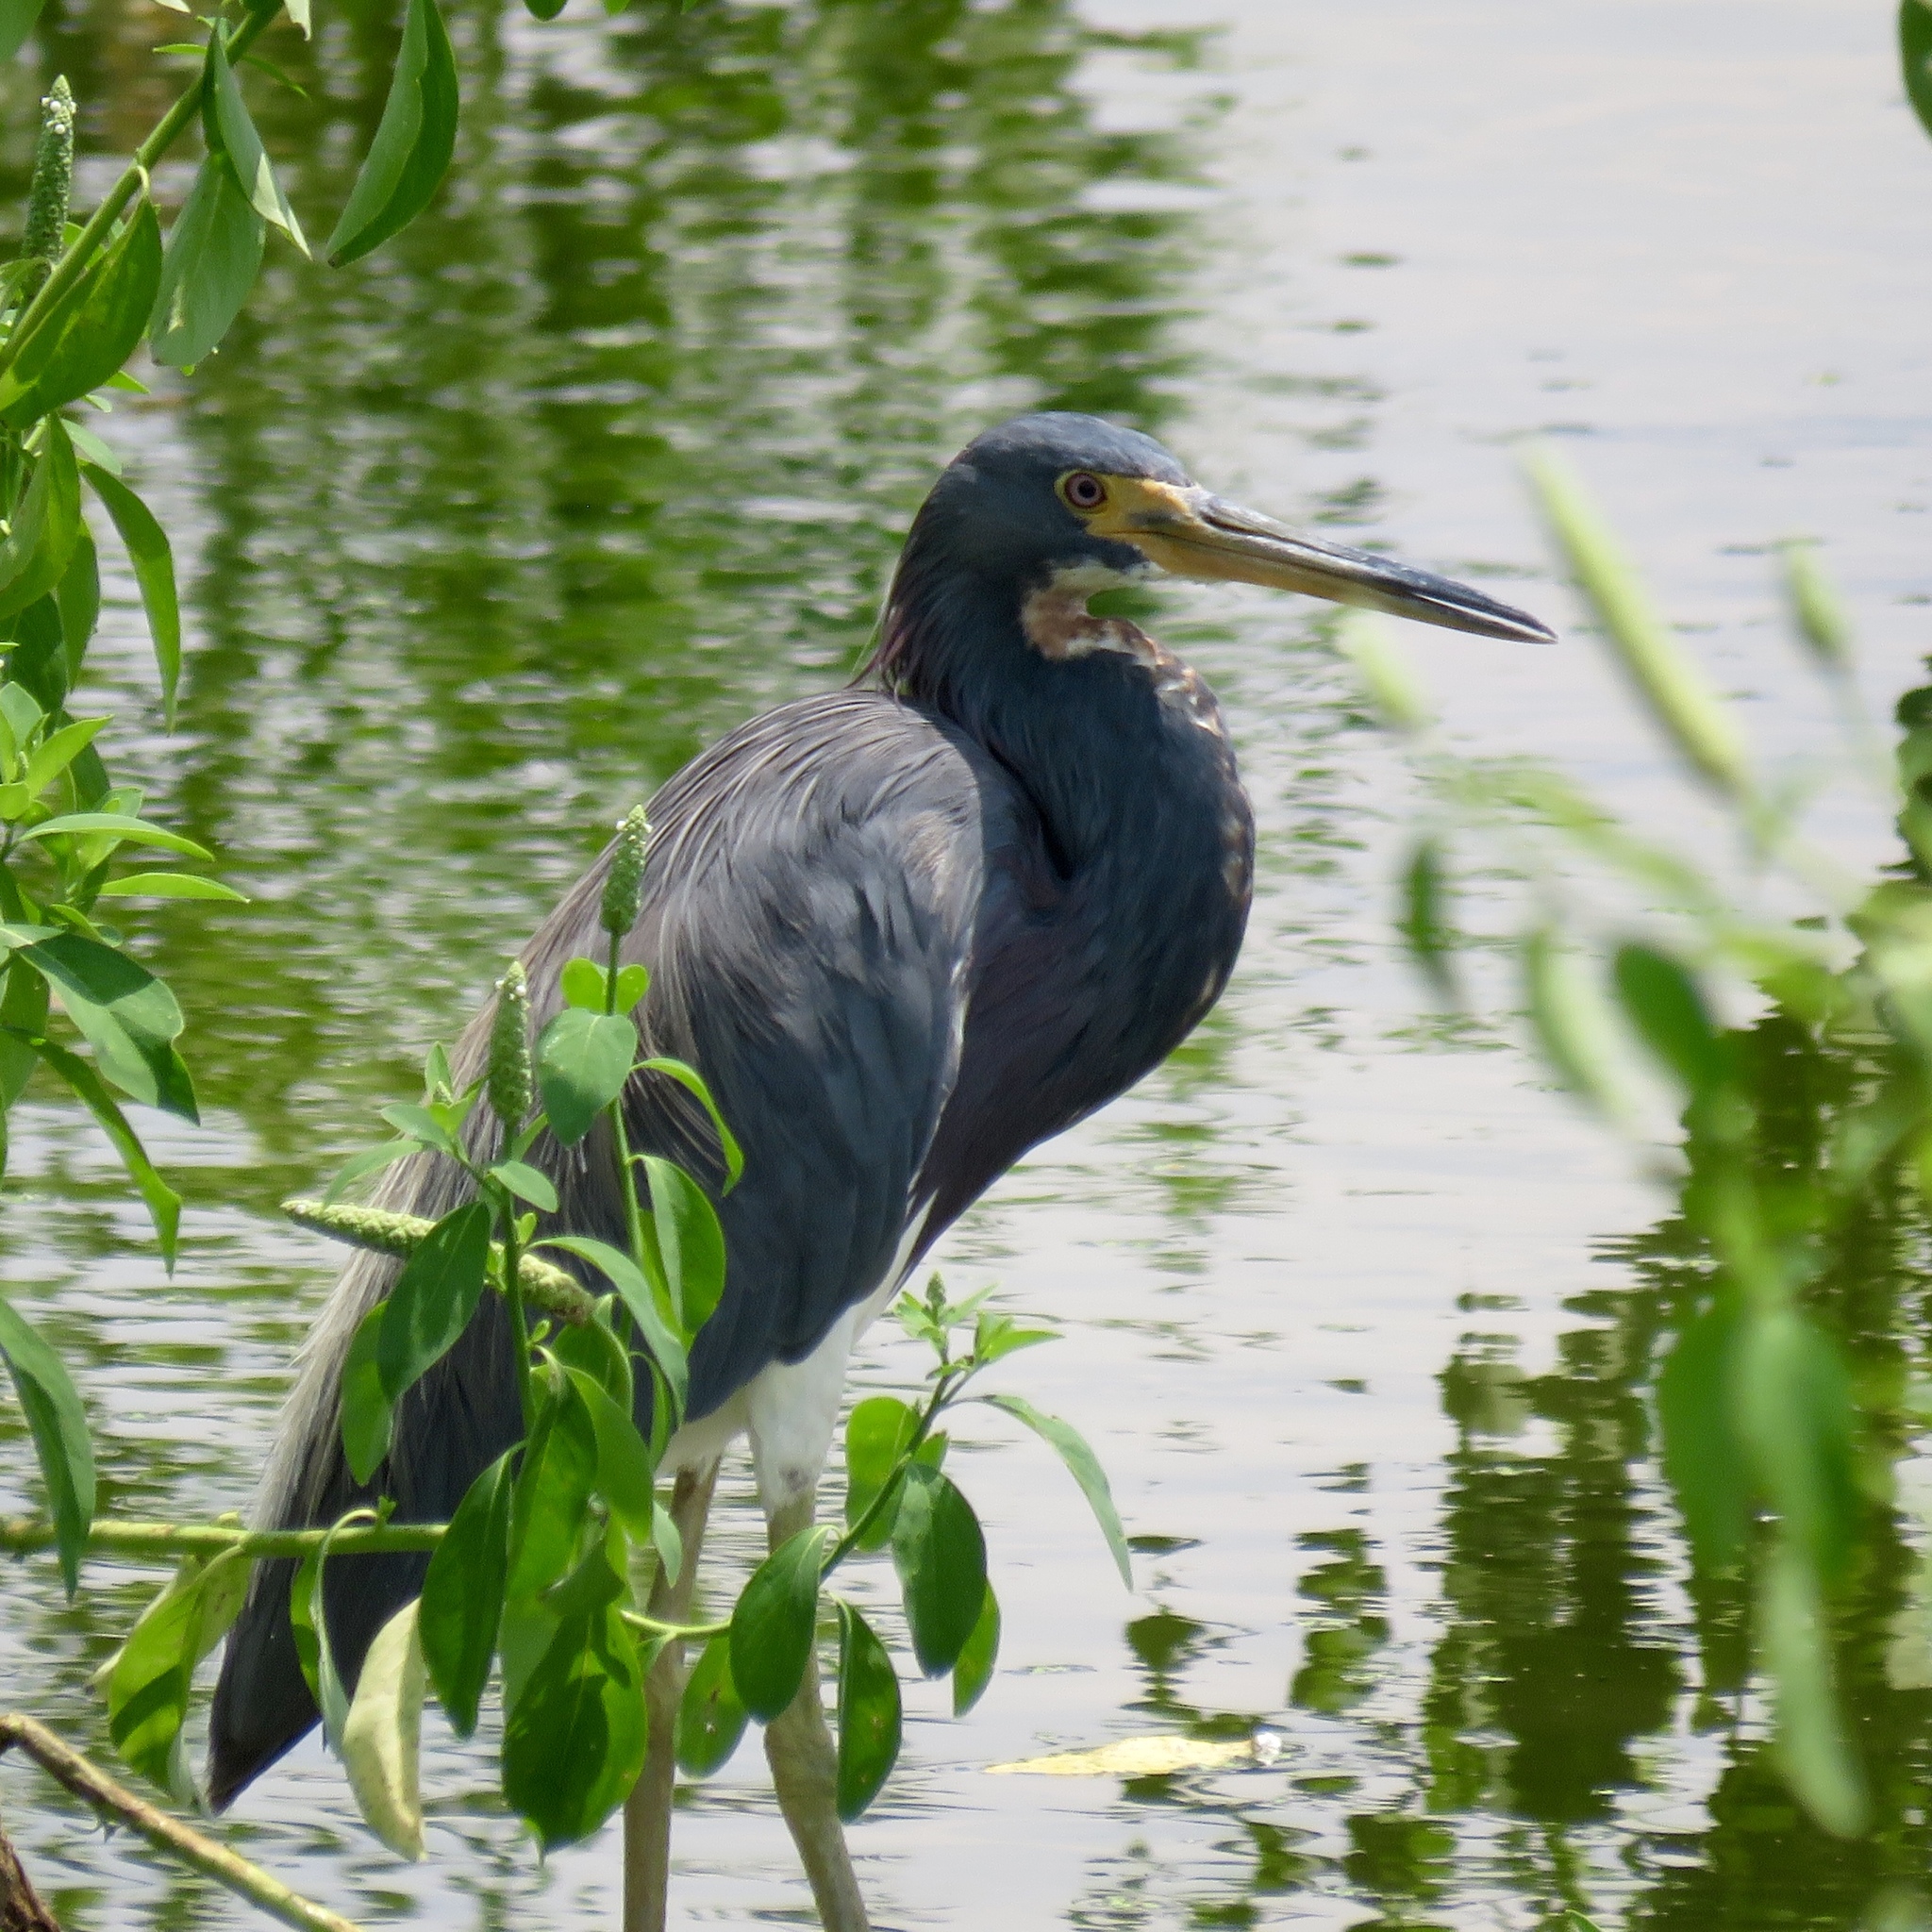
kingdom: Animalia
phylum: Chordata
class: Aves
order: Pelecaniformes
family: Ardeidae
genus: Egretta
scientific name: Egretta tricolor
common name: Tricolored heron
